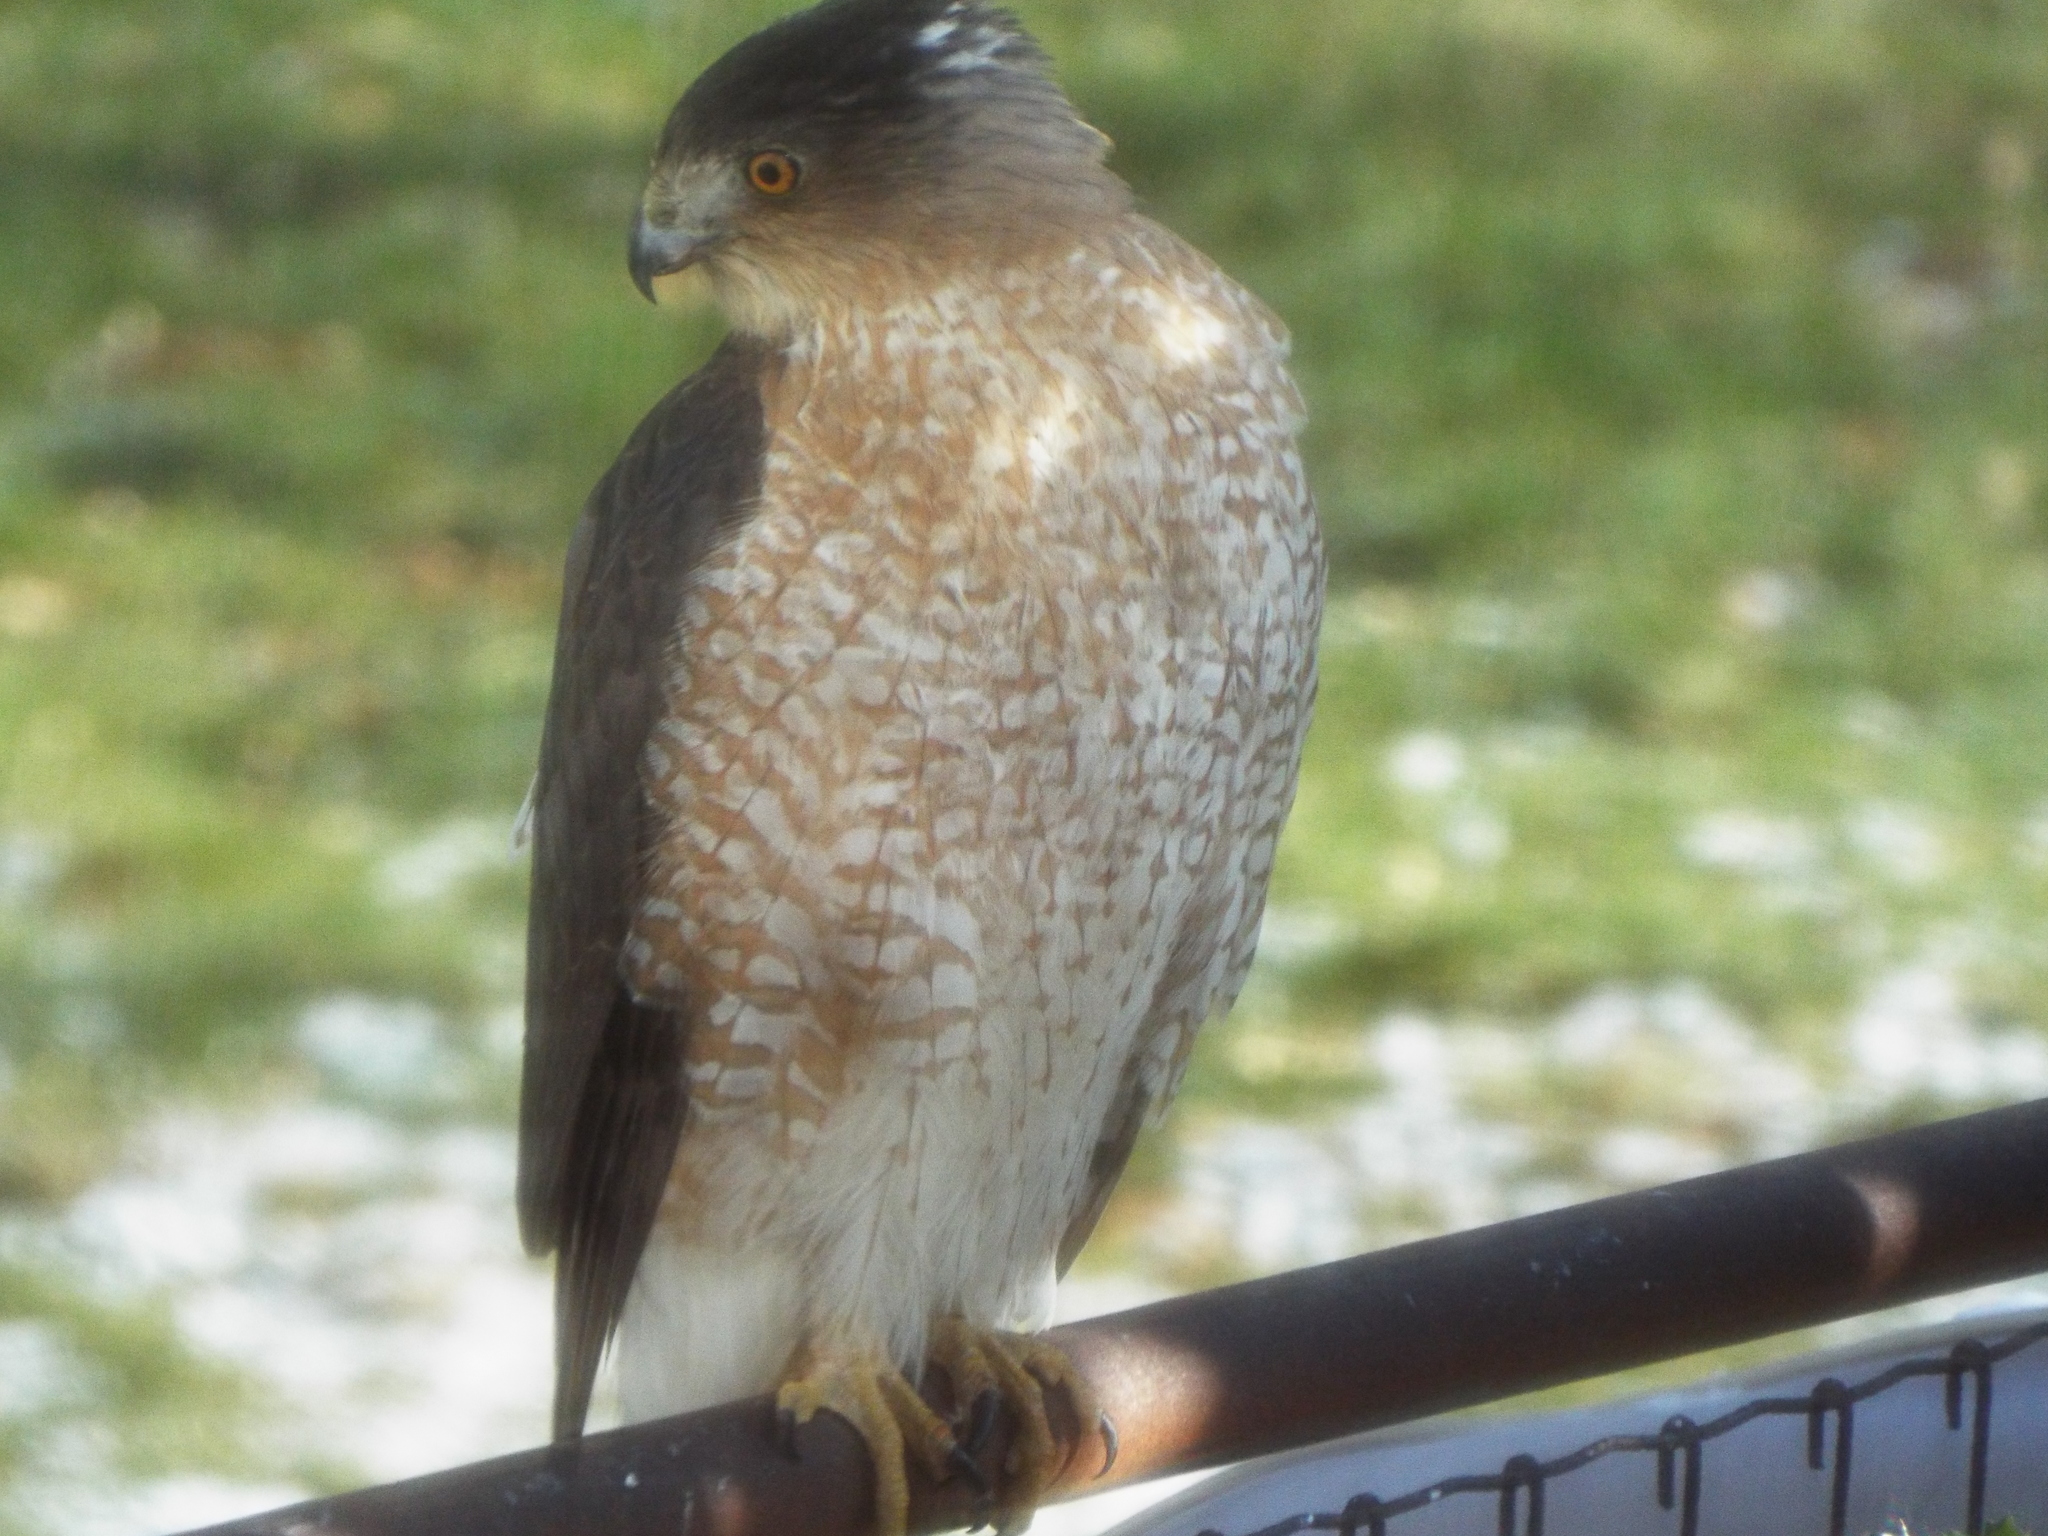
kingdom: Animalia
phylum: Chordata
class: Aves
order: Accipitriformes
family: Accipitridae
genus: Accipiter
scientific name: Accipiter cooperii
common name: Cooper's hawk
